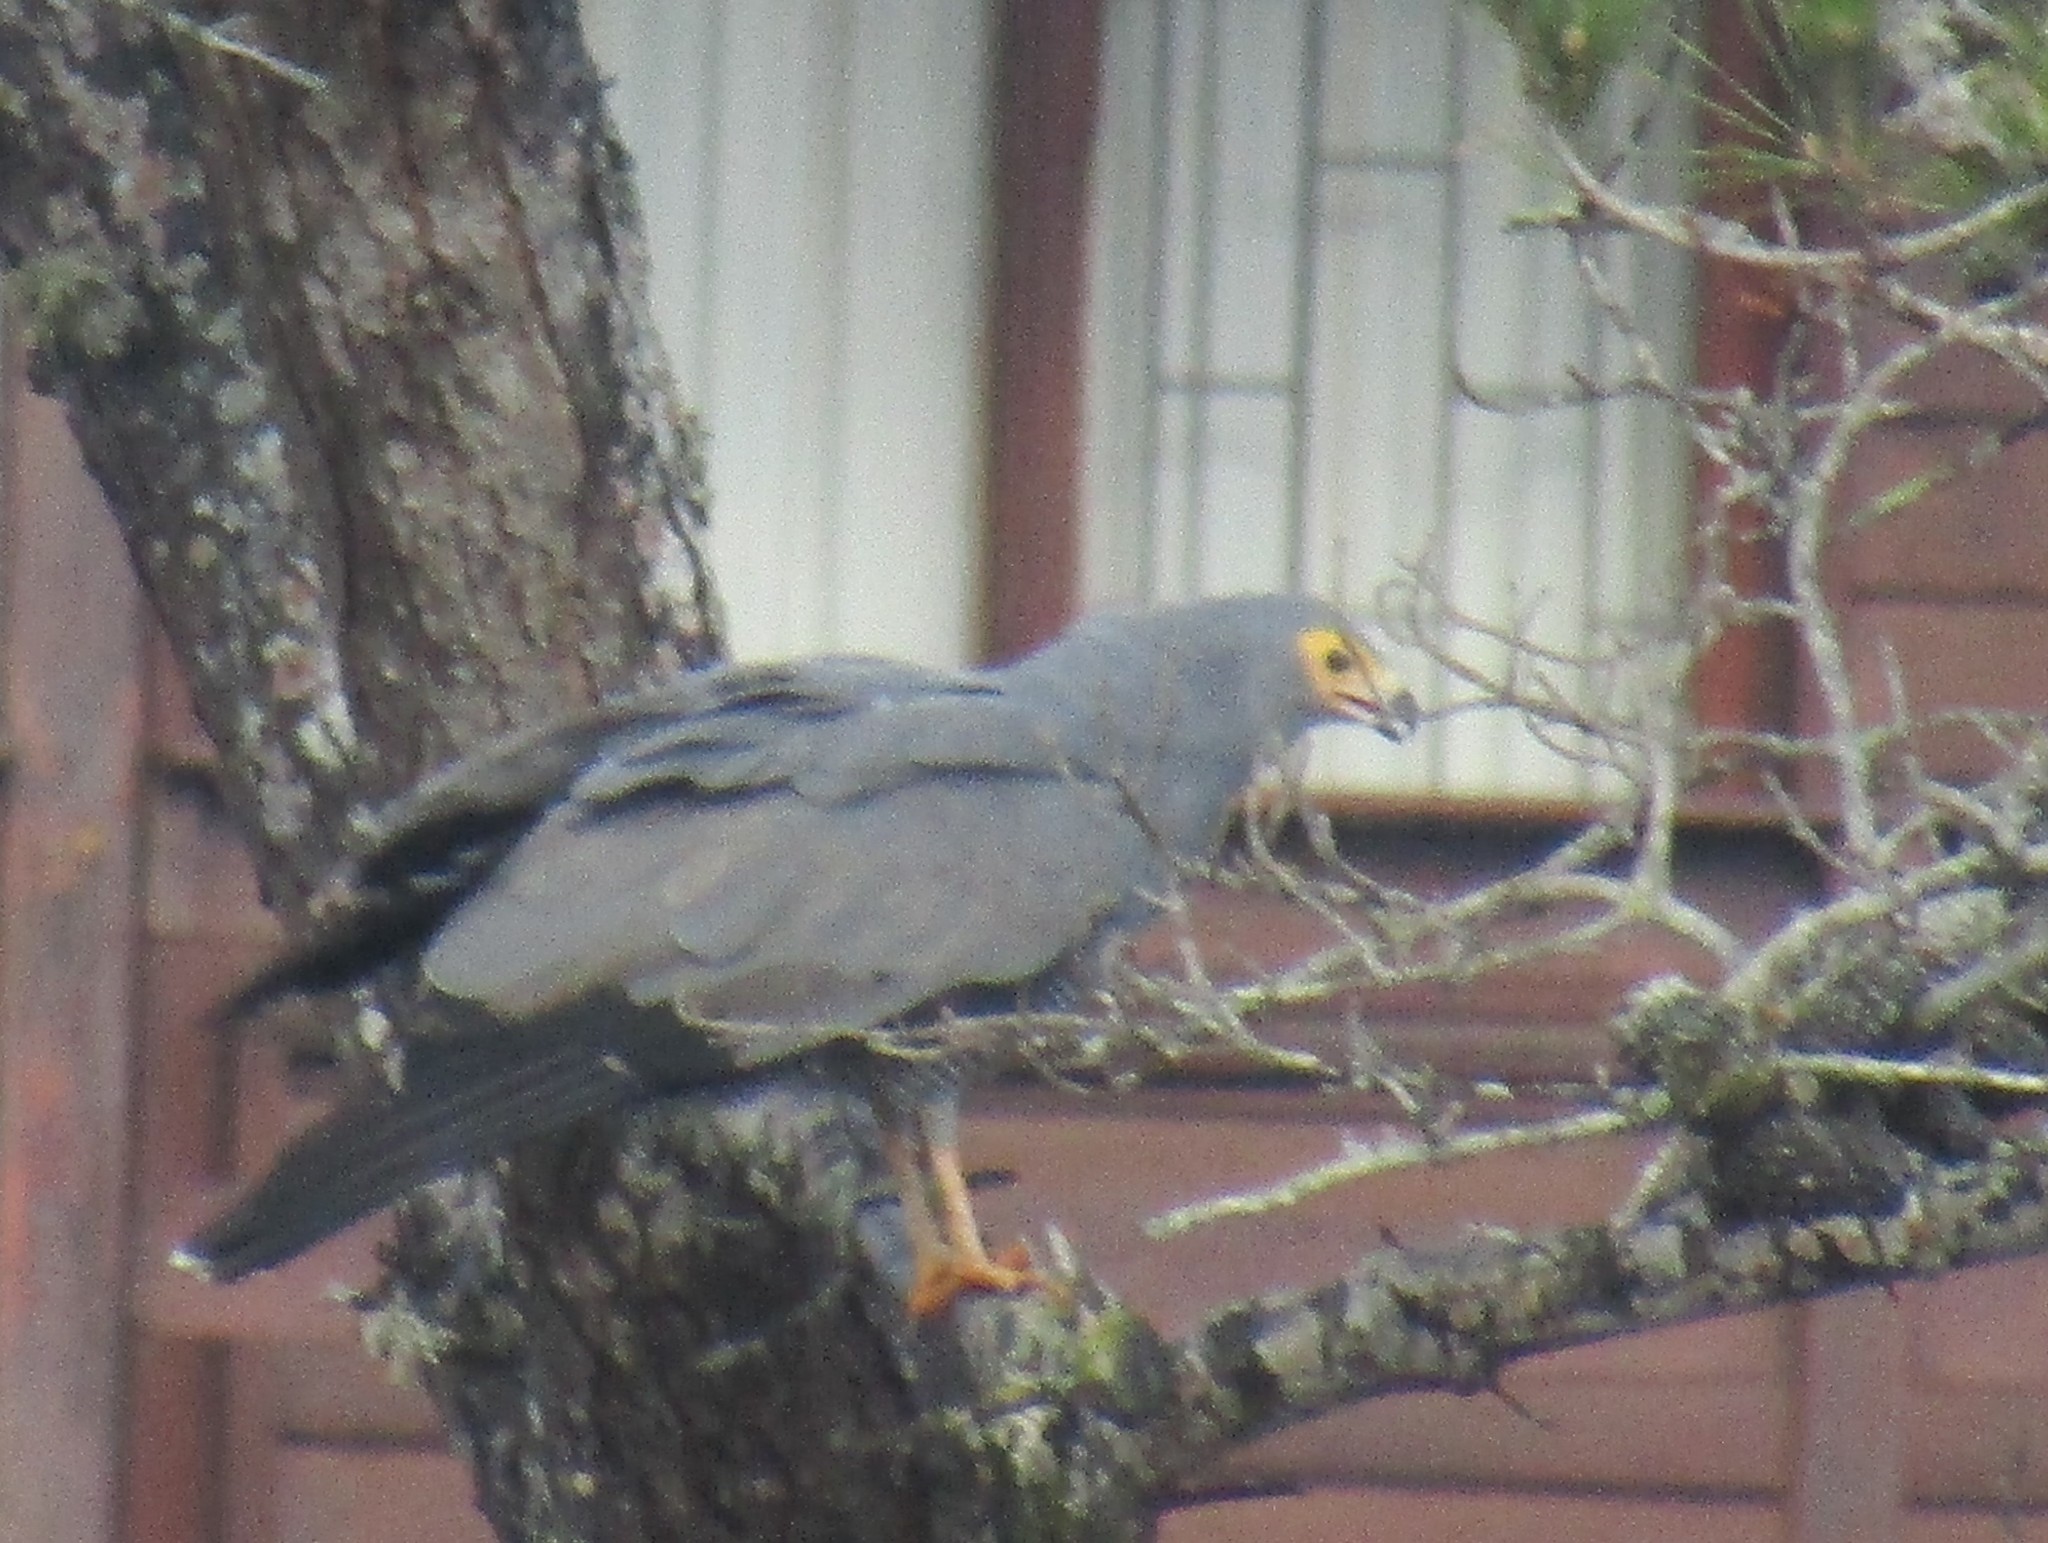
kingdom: Animalia
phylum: Chordata
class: Aves
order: Accipitriformes
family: Accipitridae
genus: Polyboroides
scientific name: Polyboroides typus
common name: African harrier-hawk
